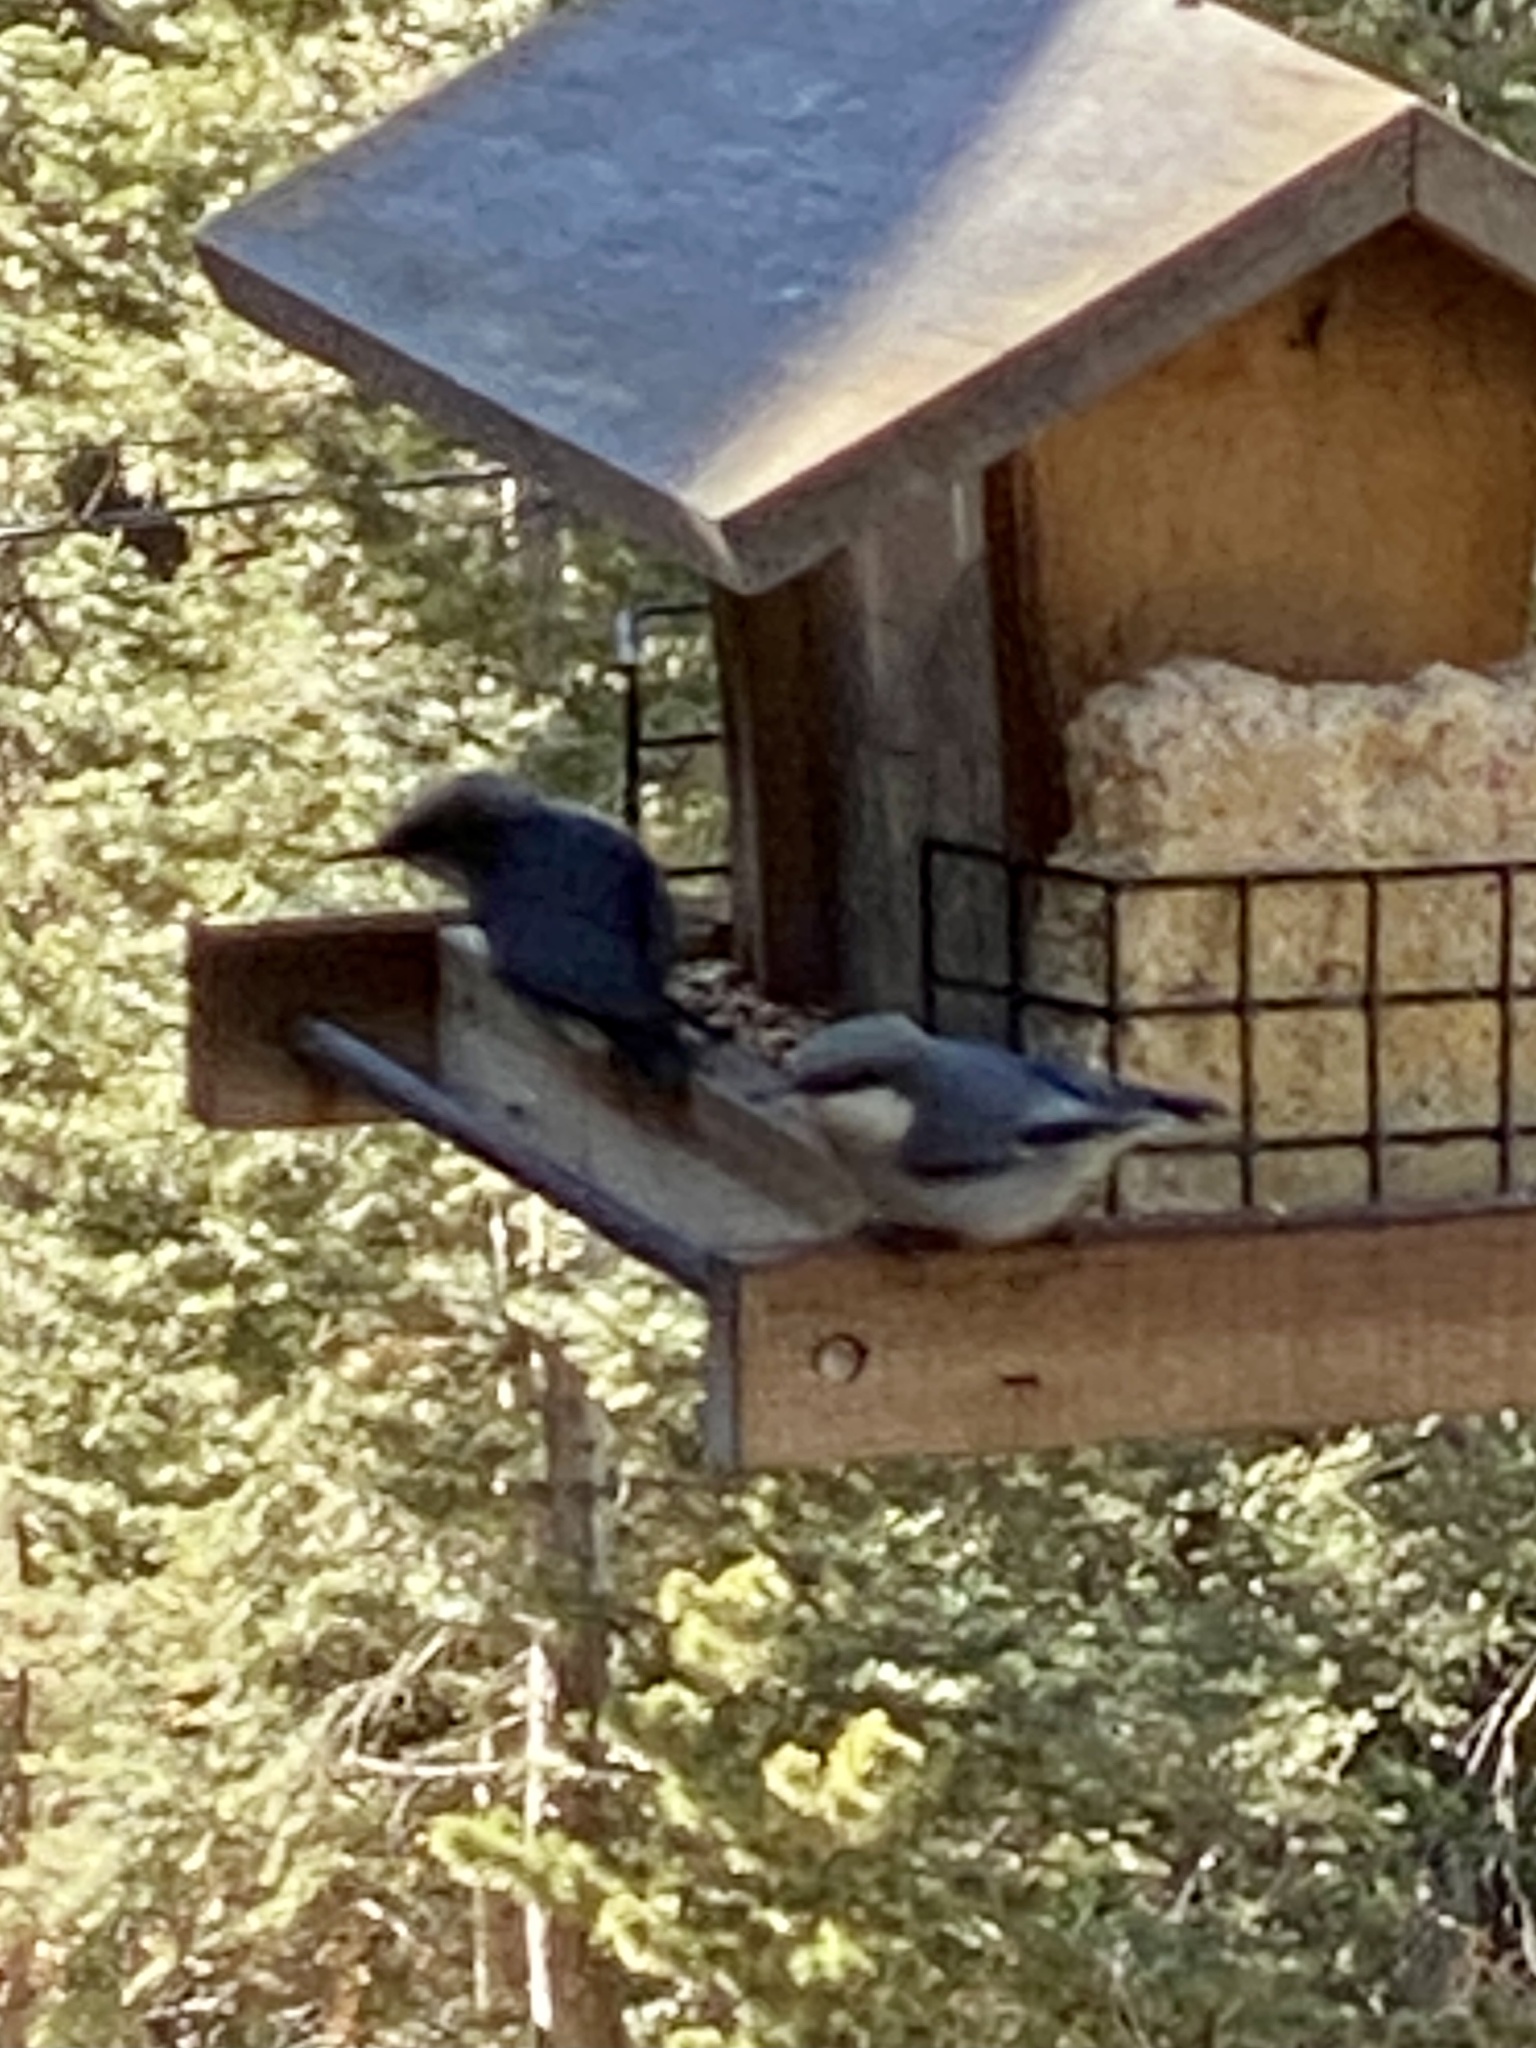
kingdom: Animalia
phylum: Chordata
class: Aves
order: Passeriformes
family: Sittidae
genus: Sitta
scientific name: Sitta pygmaea
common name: Pygmy nuthatch
